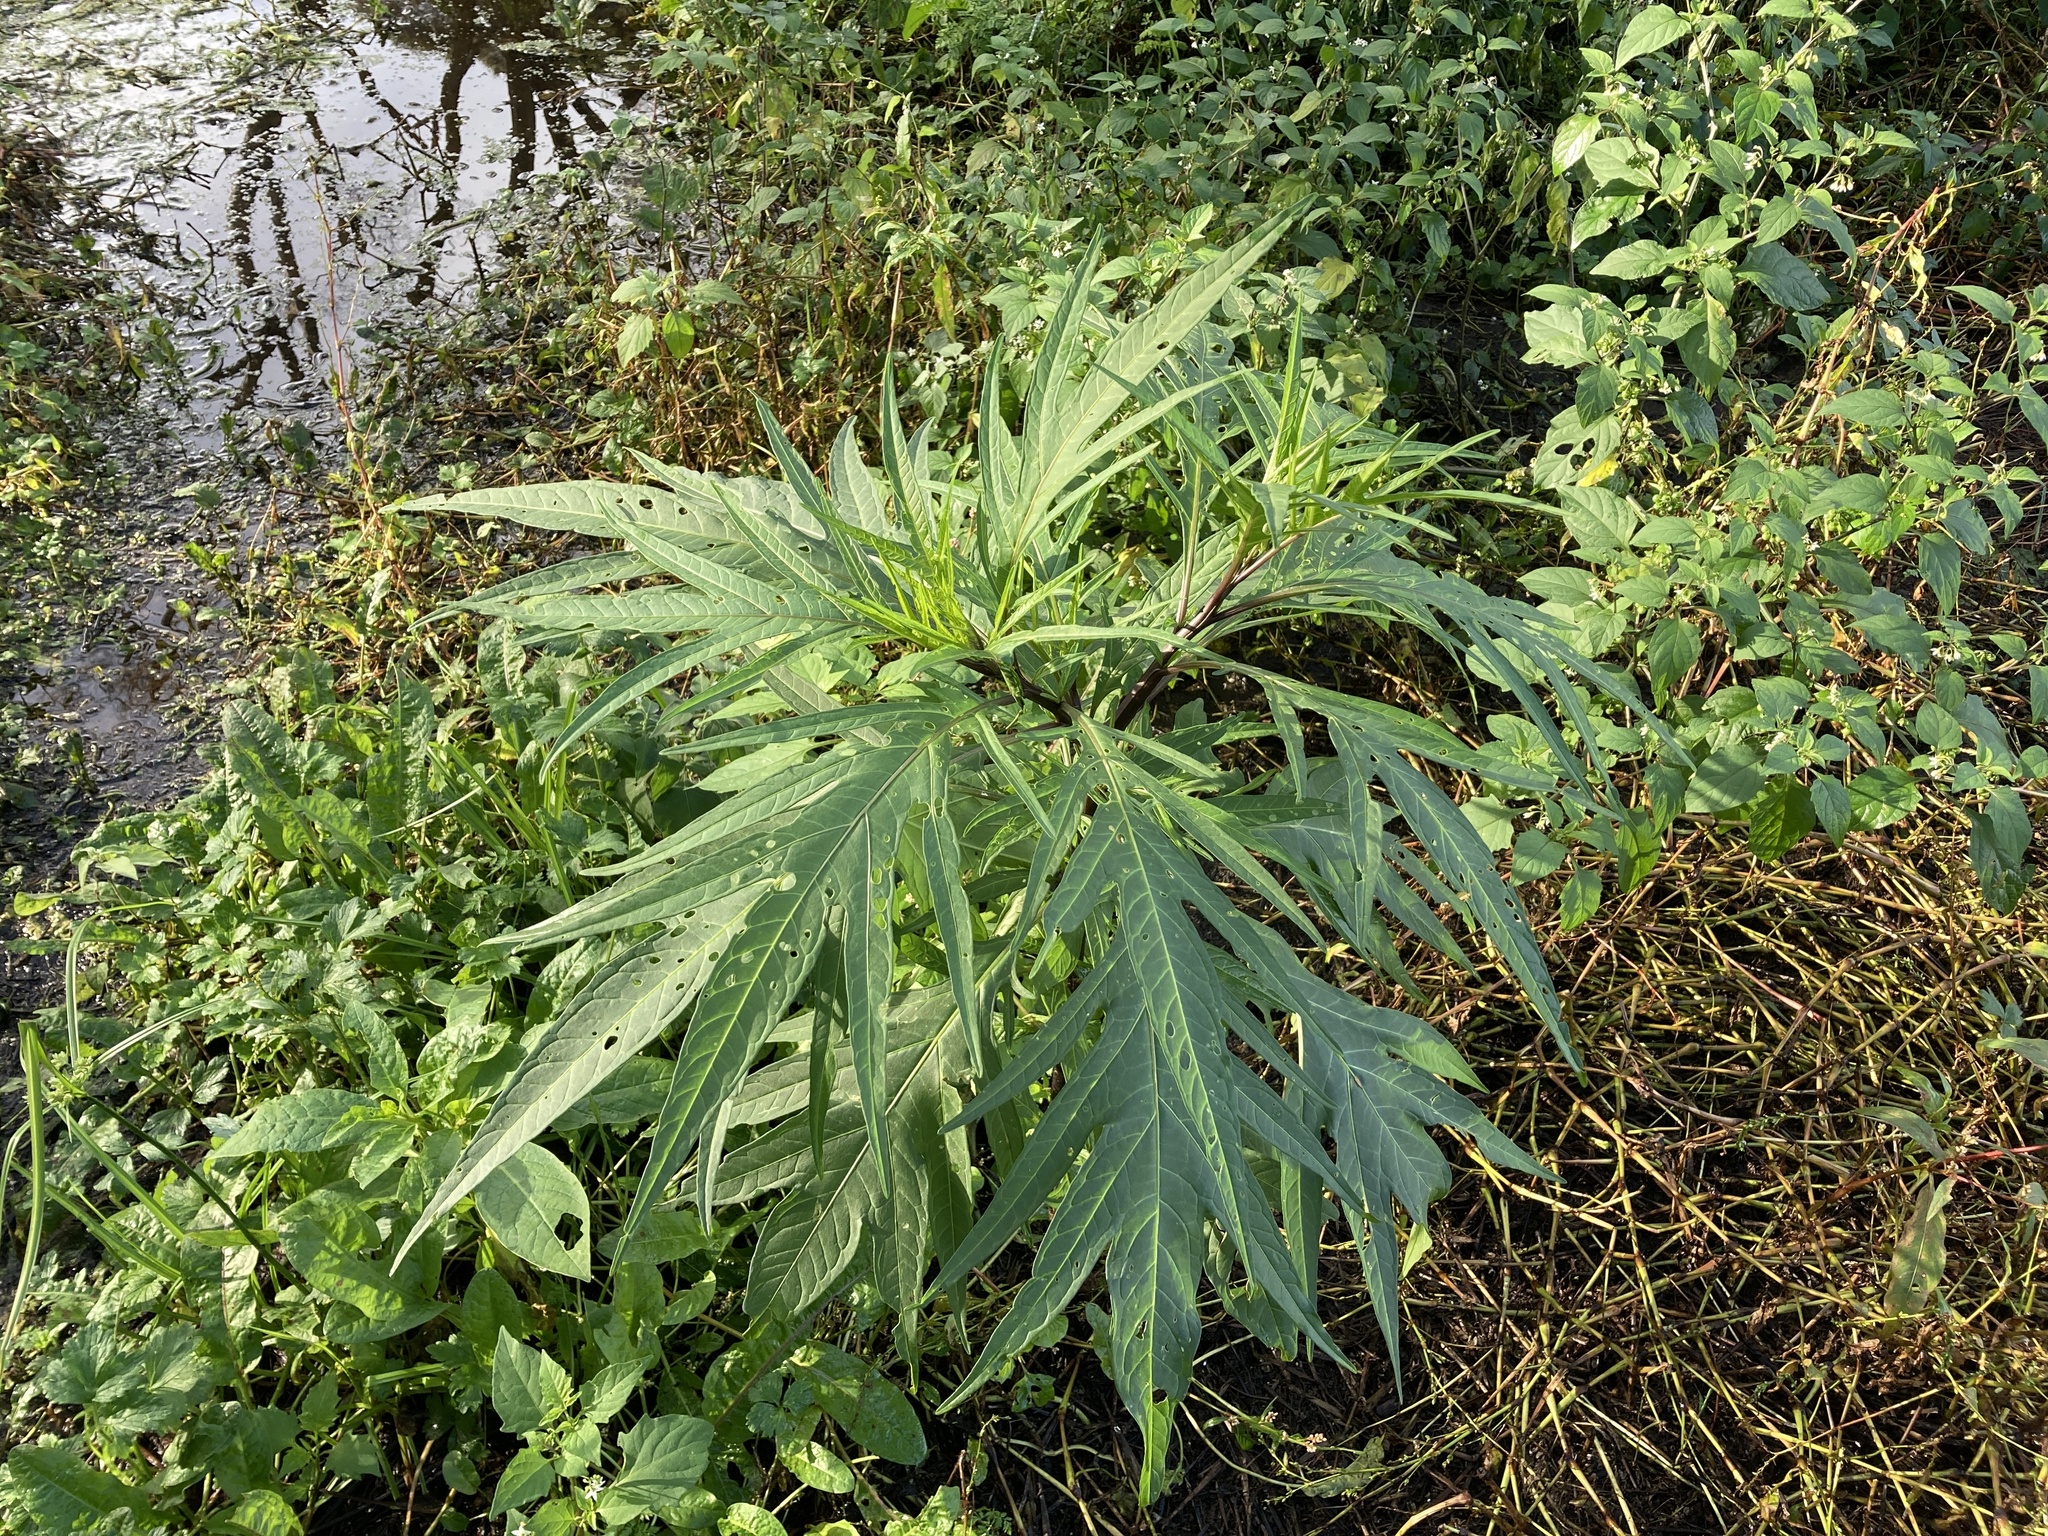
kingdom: Plantae
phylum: Tracheophyta
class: Magnoliopsida
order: Solanales
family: Solanaceae
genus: Solanum
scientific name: Solanum
